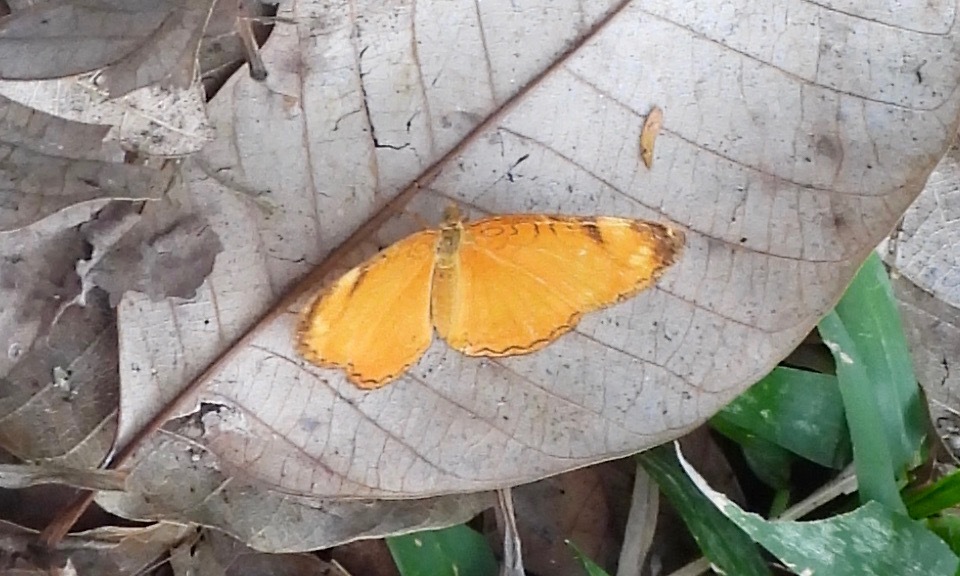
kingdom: Animalia
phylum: Arthropoda
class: Insecta
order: Lepidoptera
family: Nymphalidae
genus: Tegosa
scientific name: Tegosa guatemalena
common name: Guatemalan crescent
